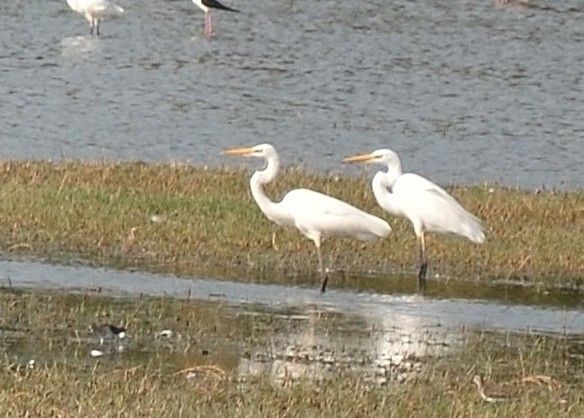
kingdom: Animalia
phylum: Chordata
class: Aves
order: Pelecaniformes
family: Ardeidae
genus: Ardea
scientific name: Ardea alba
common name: Great egret
